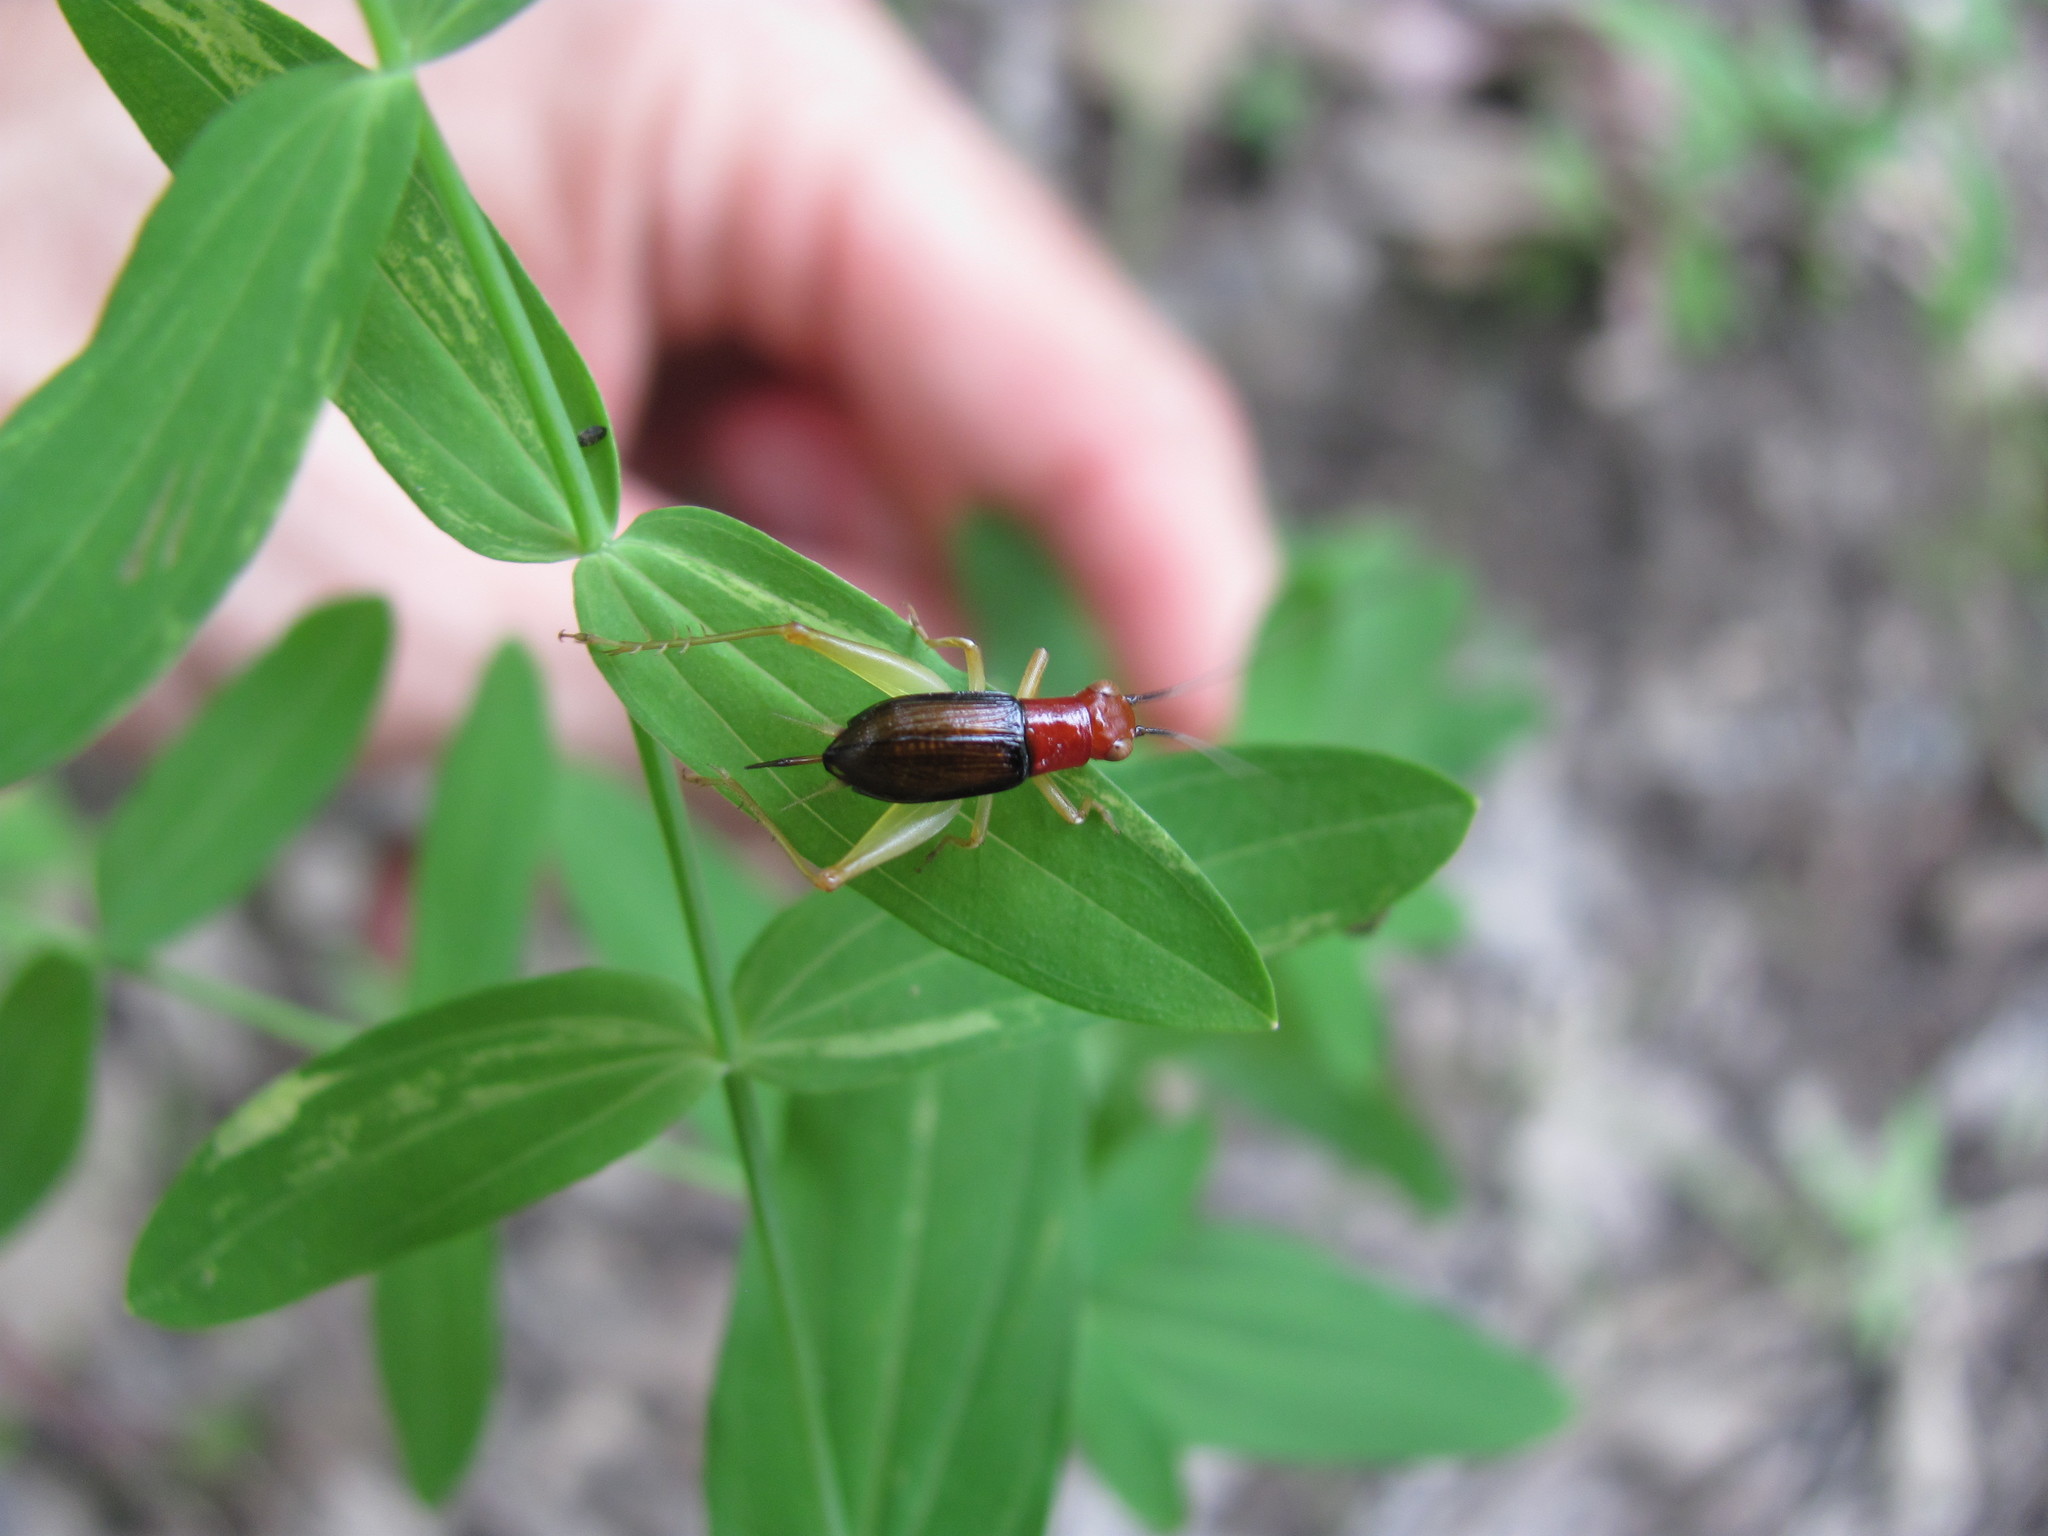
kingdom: Animalia
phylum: Arthropoda
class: Insecta
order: Orthoptera
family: Trigonidiidae
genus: Phyllopalpus
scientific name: Phyllopalpus pulchellus
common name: Handsome trig
